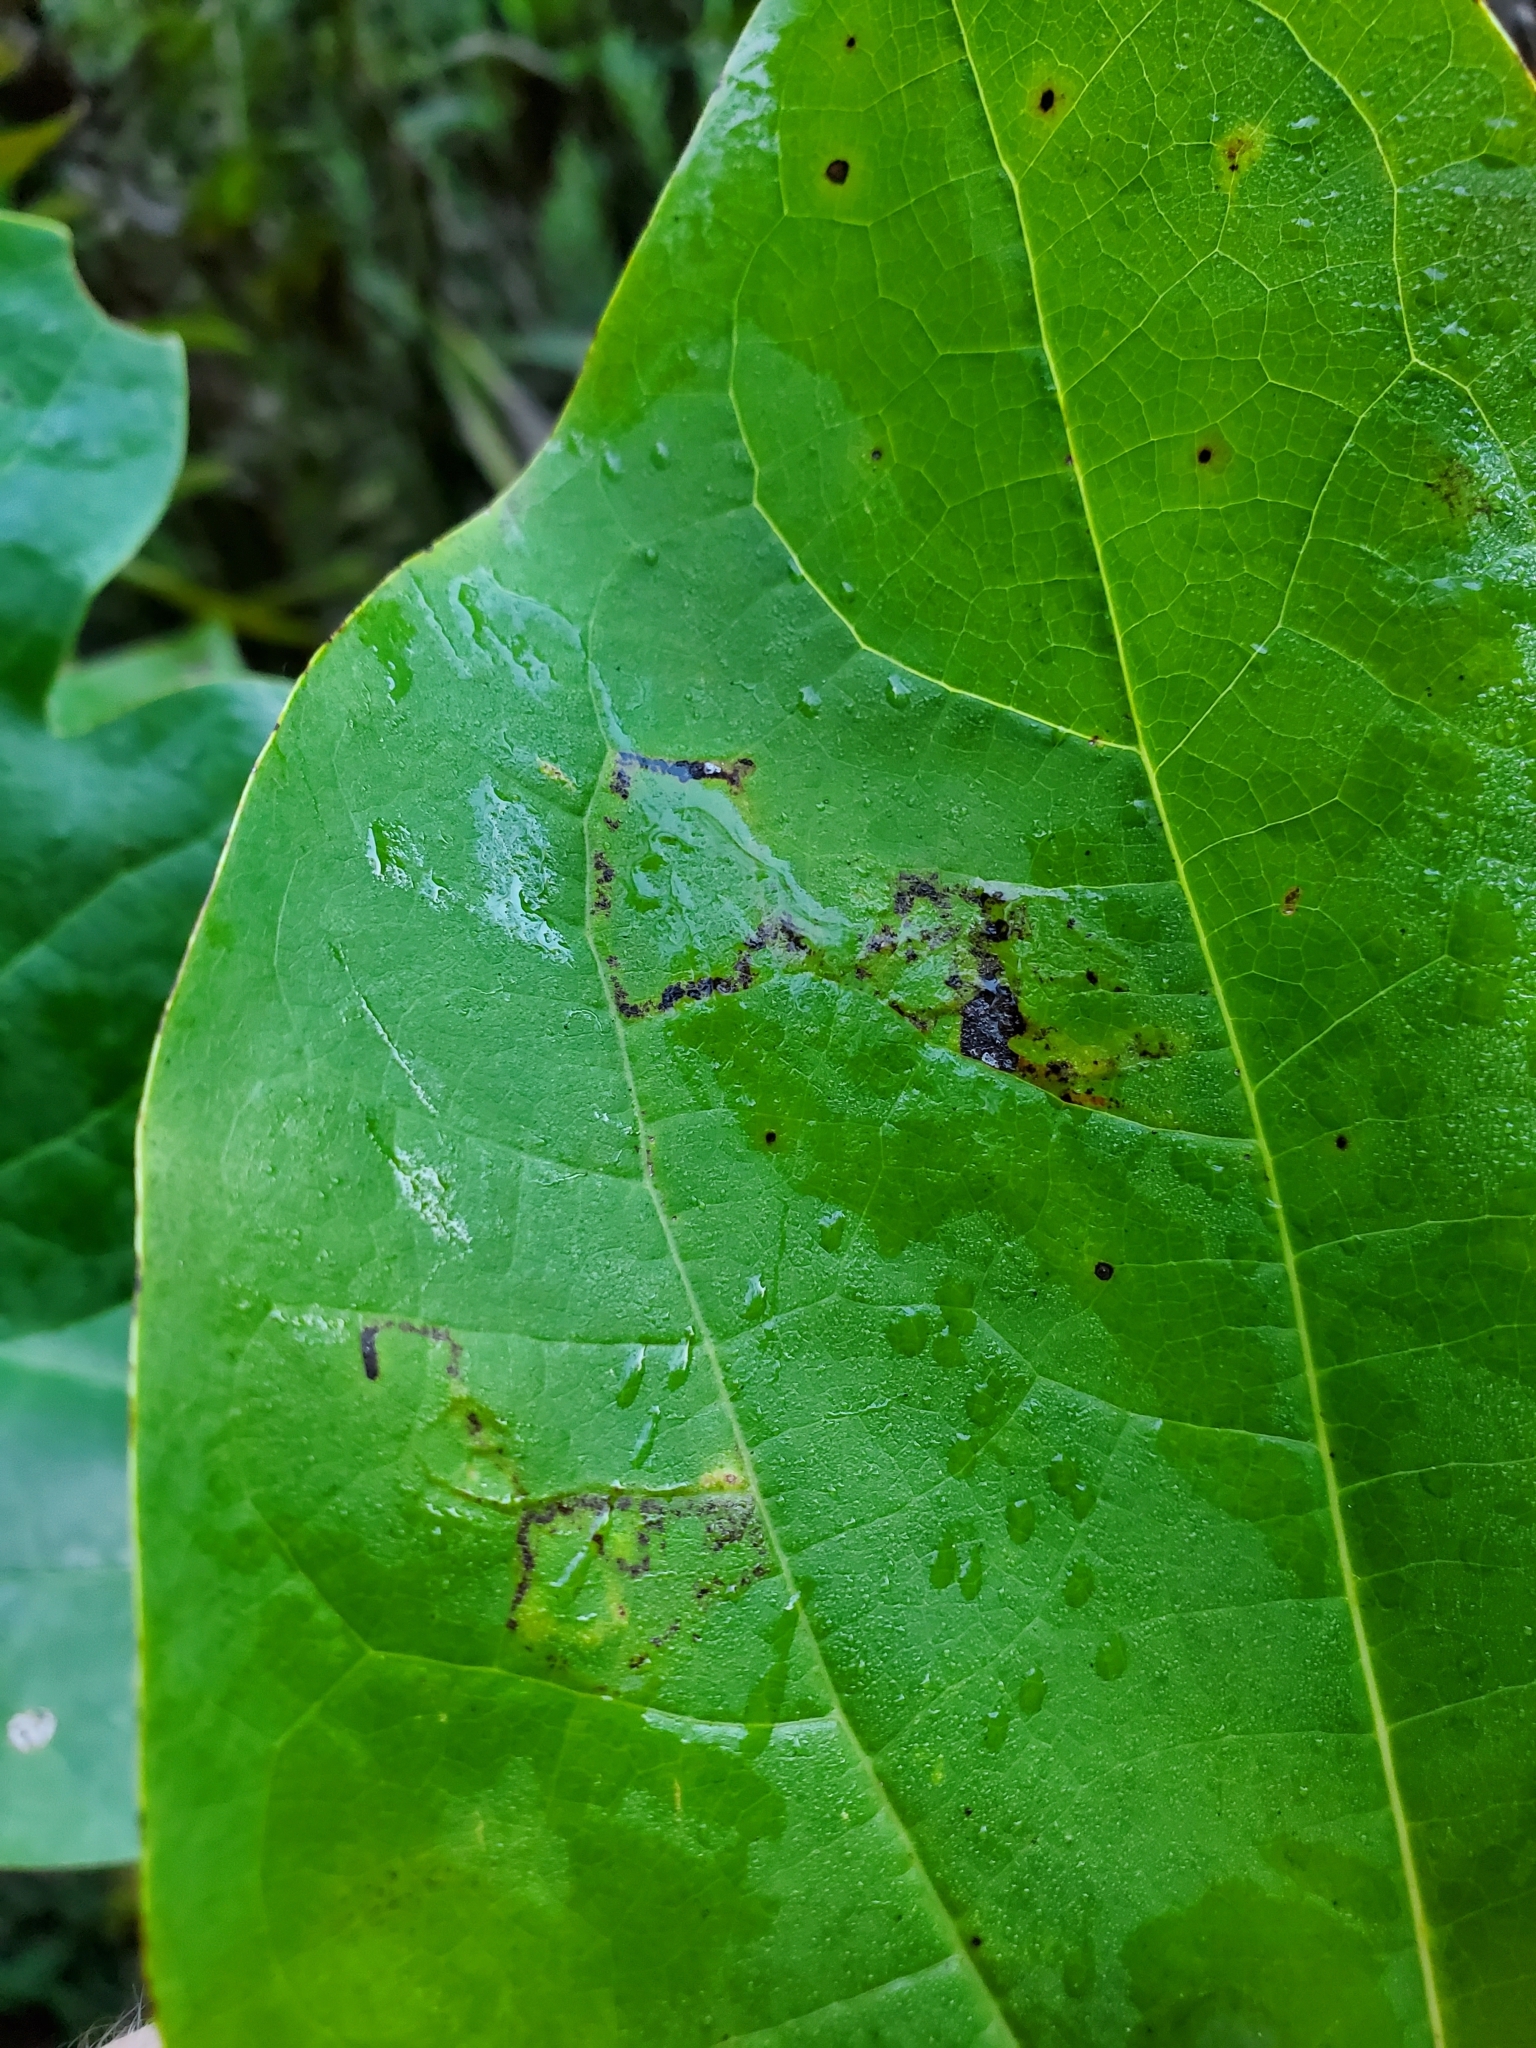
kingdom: Animalia
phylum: Arthropoda
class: Insecta
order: Lepidoptera
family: Gracillariidae
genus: Phyllocnistis
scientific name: Phyllocnistis liriodendronella
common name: Tulip tree leaf miner
